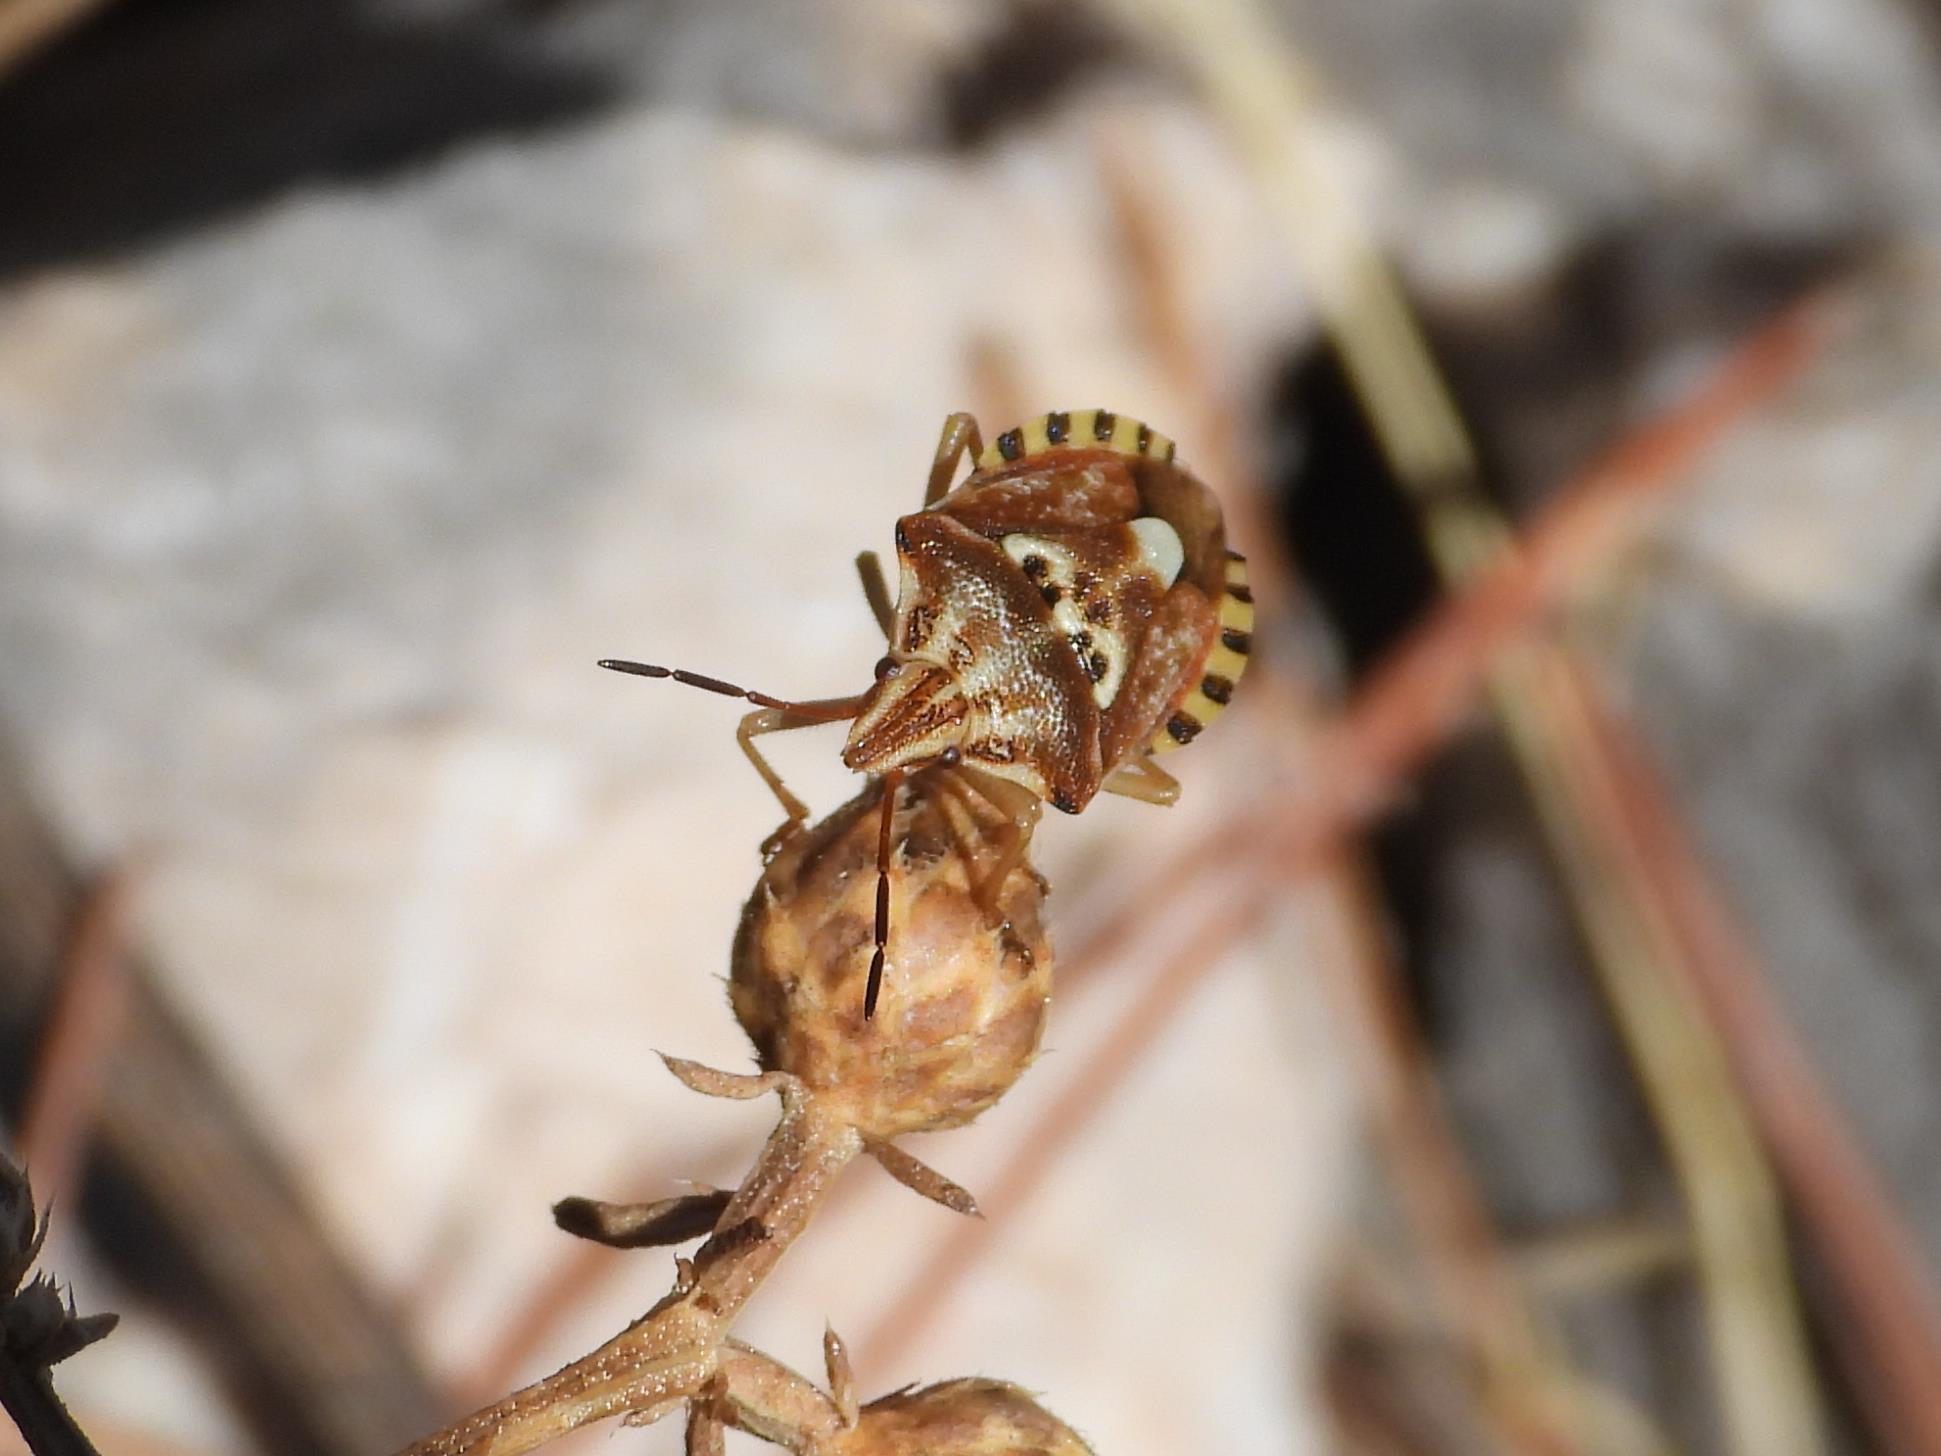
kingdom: Animalia
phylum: Arthropoda
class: Insecta
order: Hemiptera
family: Miridae
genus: Orthops
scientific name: Orthops kalmii
